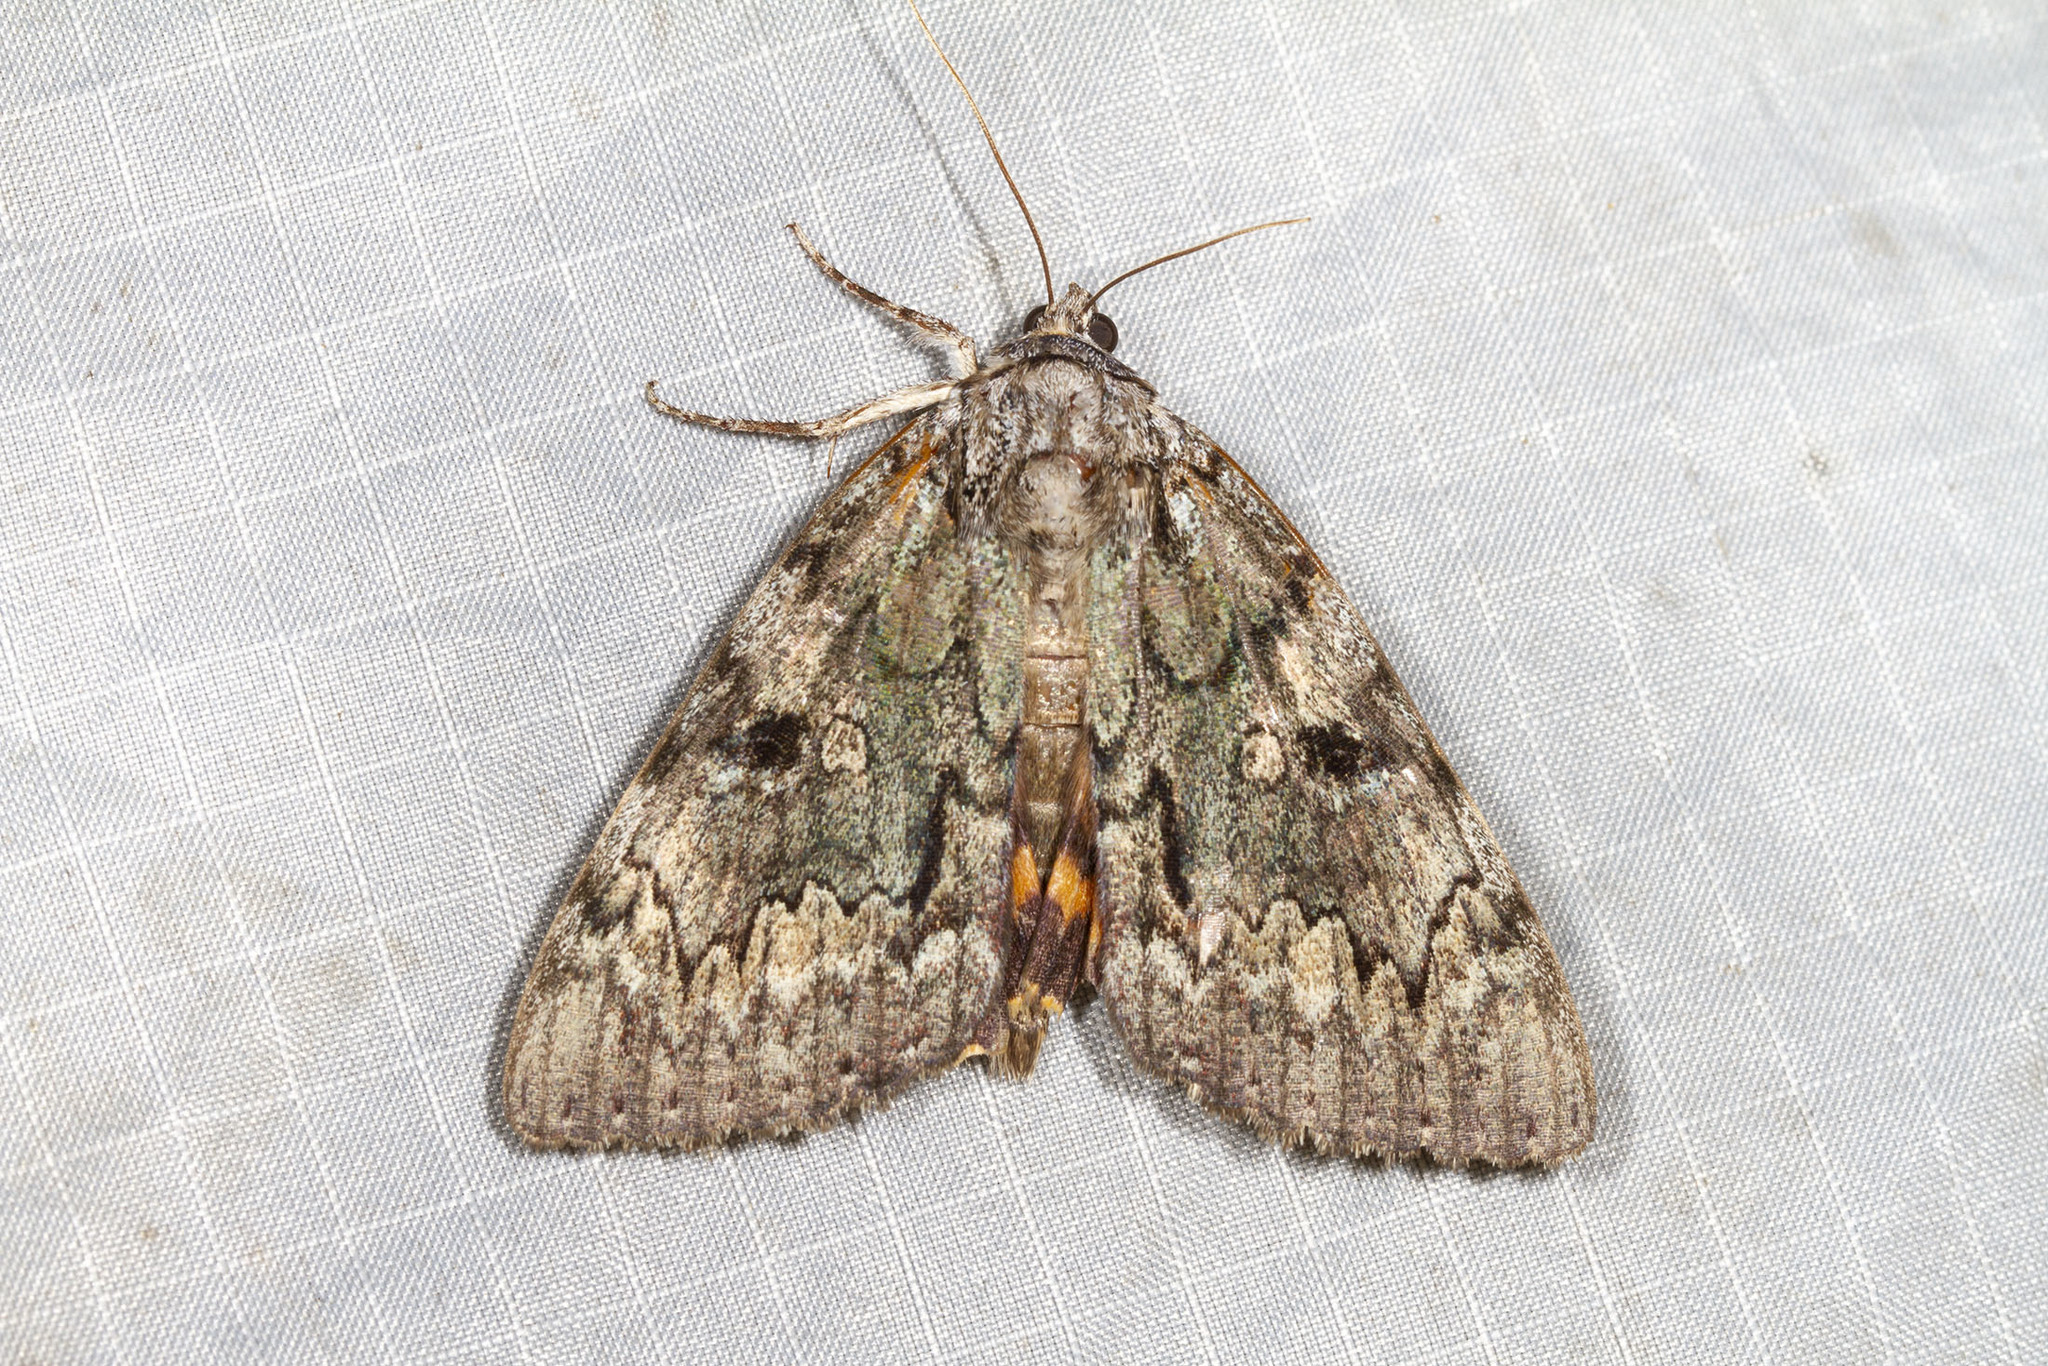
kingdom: Animalia
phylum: Arthropoda
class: Insecta
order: Lepidoptera
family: Erebidae
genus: Catocala
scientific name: Catocala palaeogama
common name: Oldwife underwing
